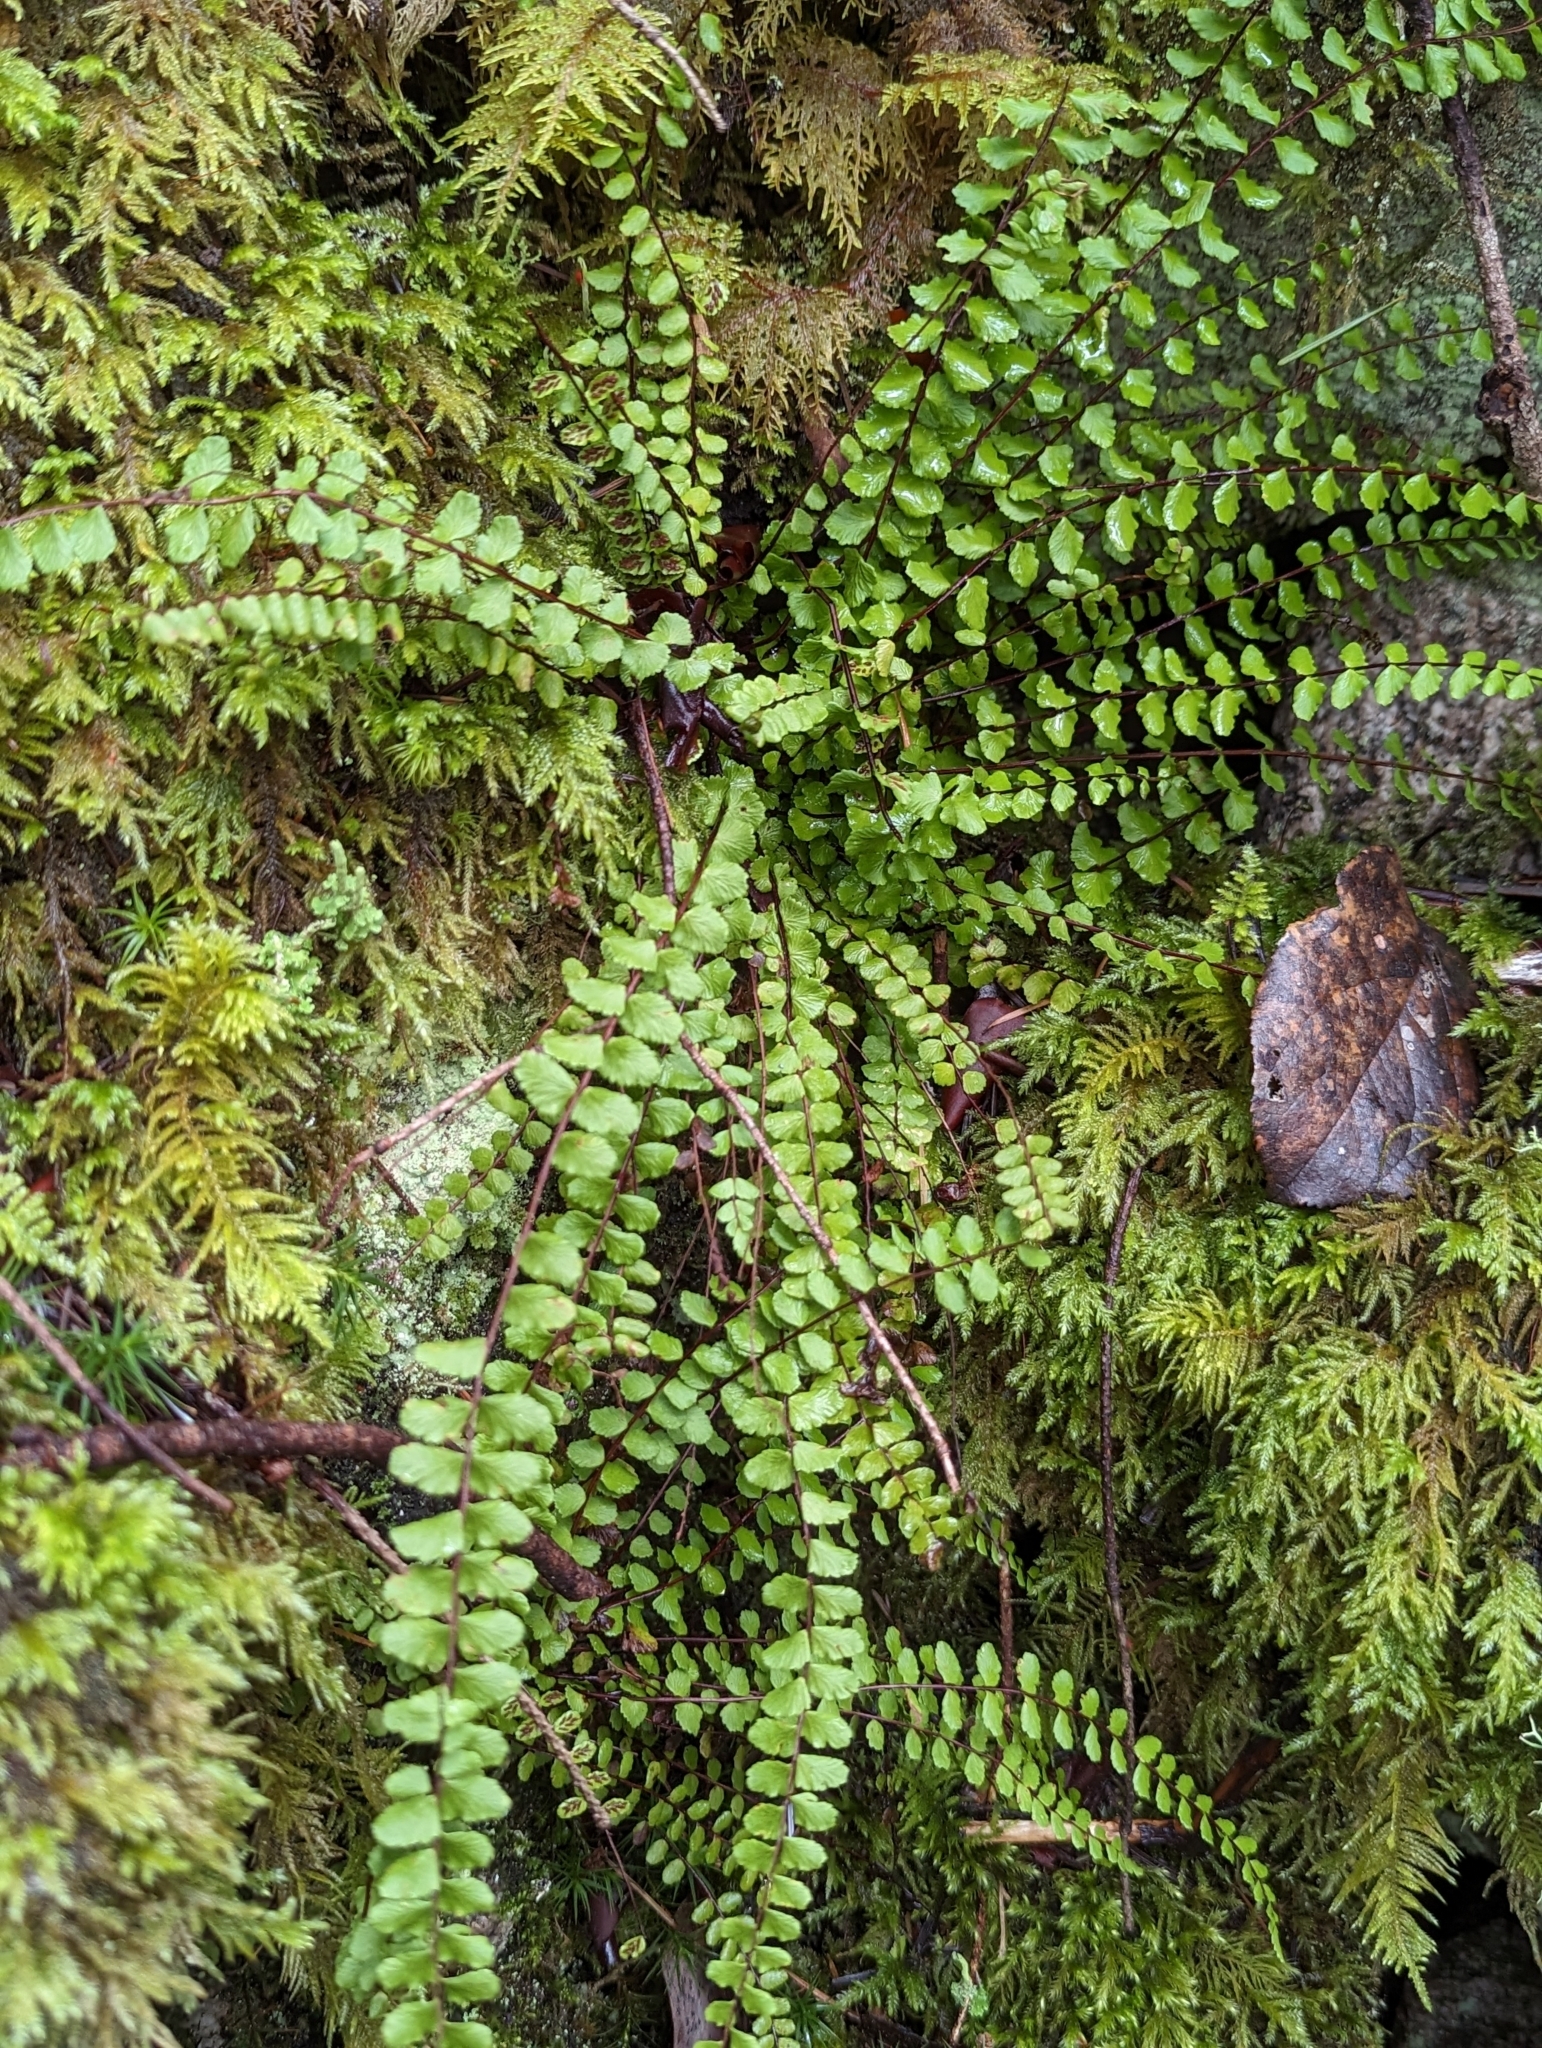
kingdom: Plantae
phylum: Tracheophyta
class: Polypodiopsida
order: Polypodiales
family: Aspleniaceae
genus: Asplenium
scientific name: Asplenium trichomanes
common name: Maidenhair spleenwort
